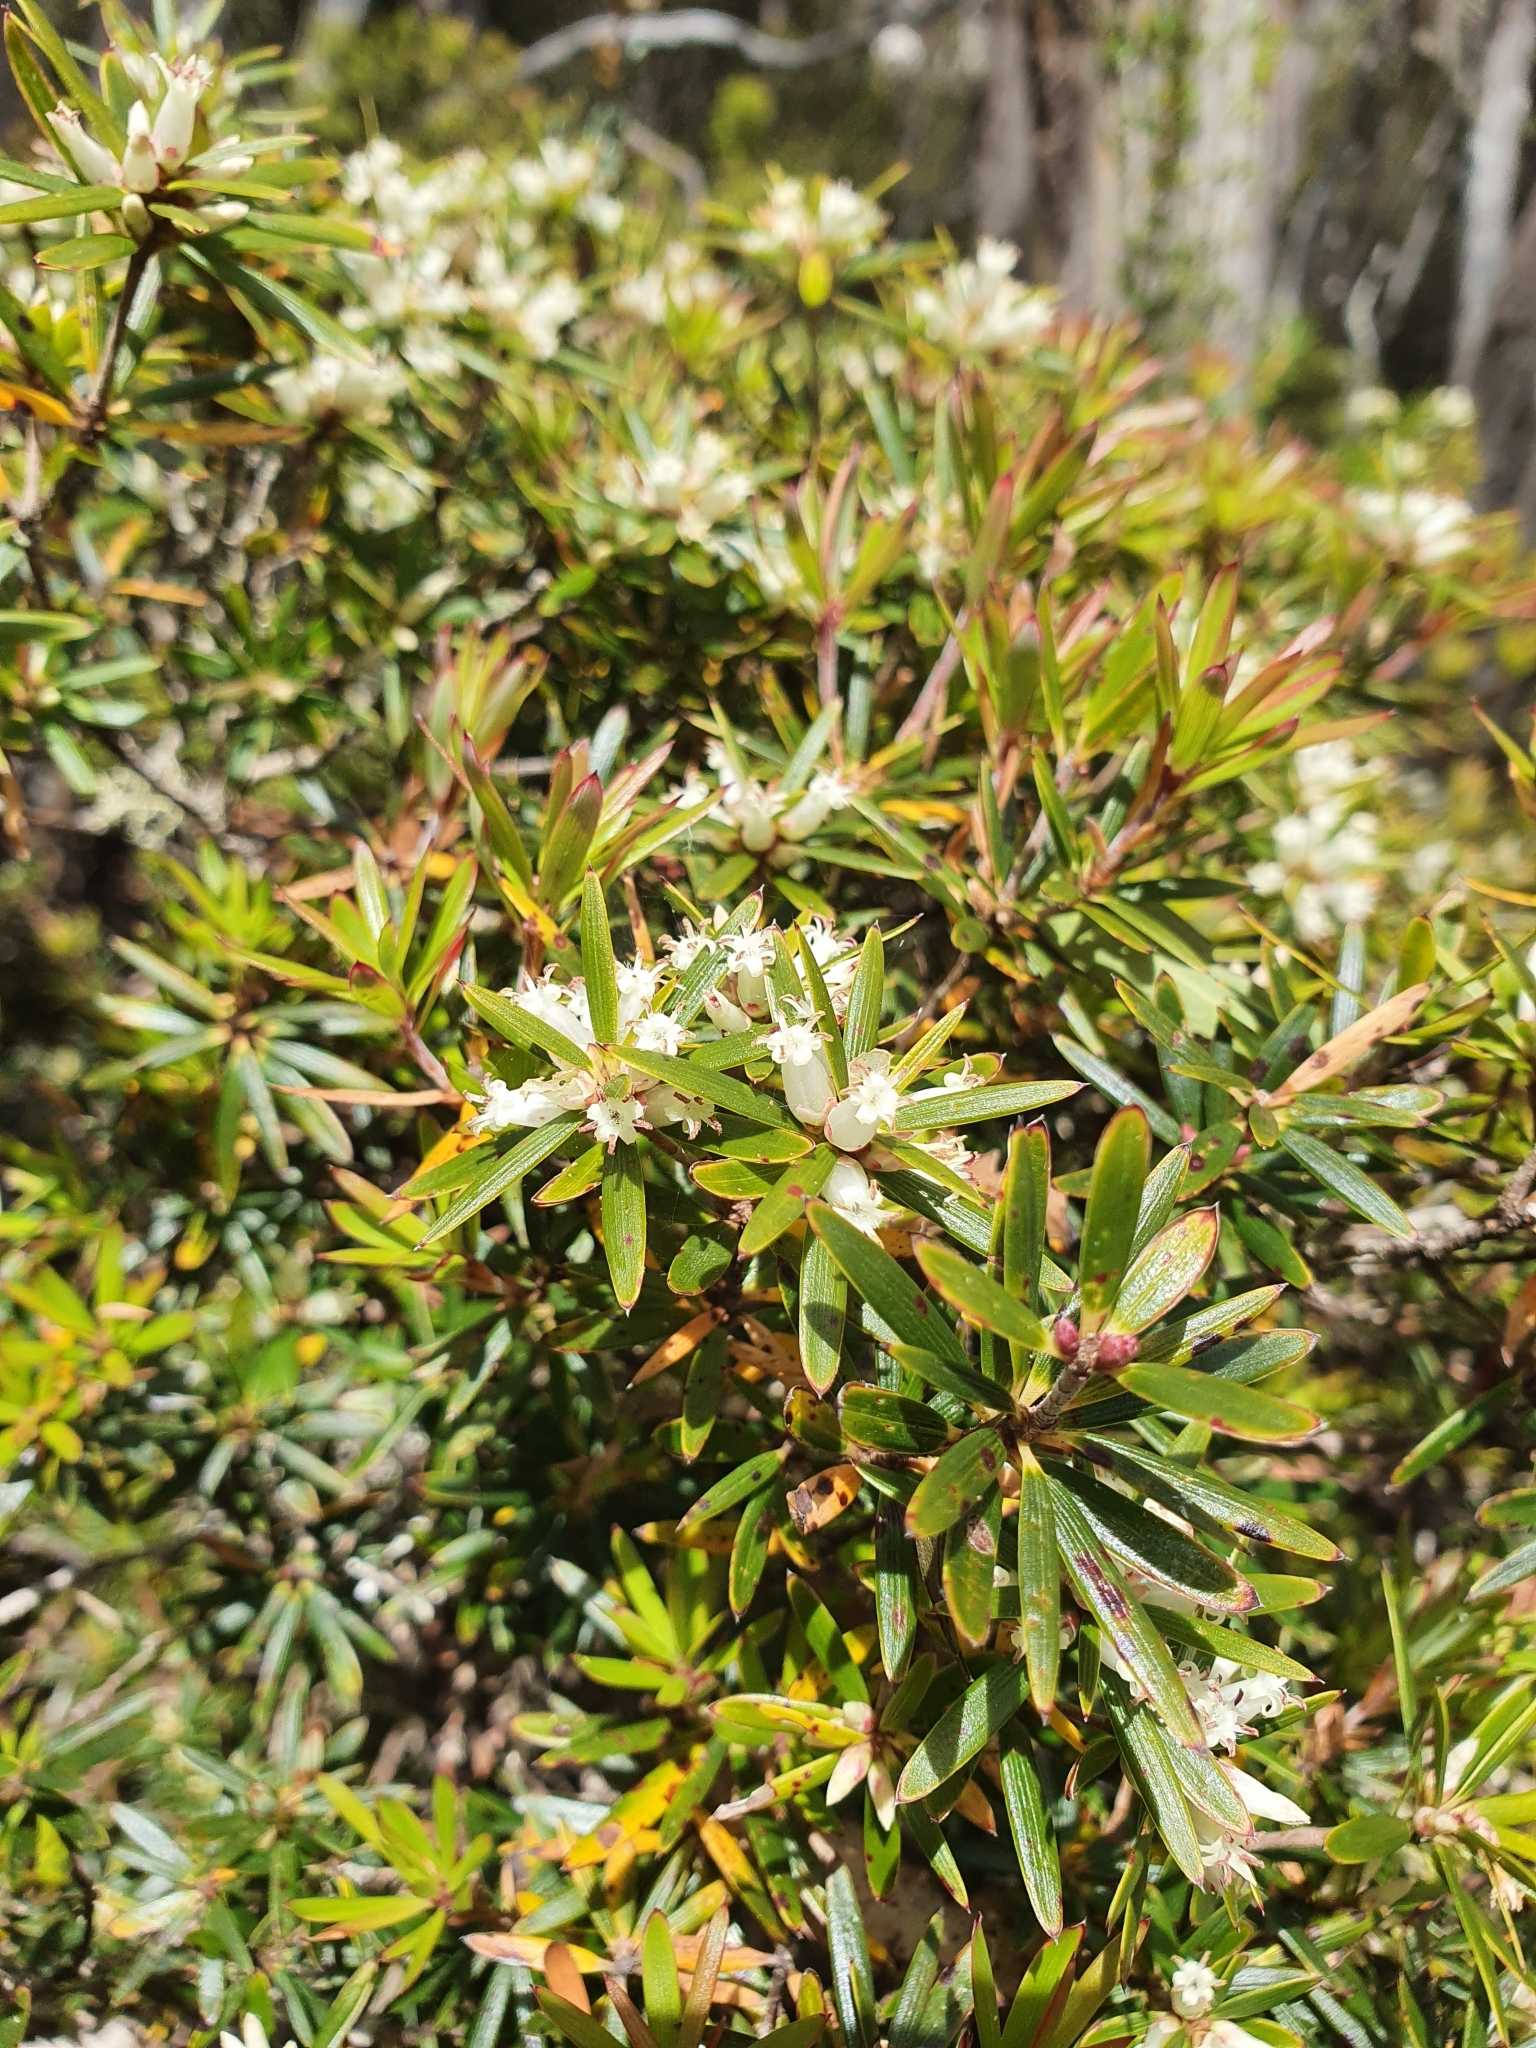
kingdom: Plantae
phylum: Tracheophyta
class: Magnoliopsida
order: Ericales
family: Ericaceae
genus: Cyathodes
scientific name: Cyathodes glauca
